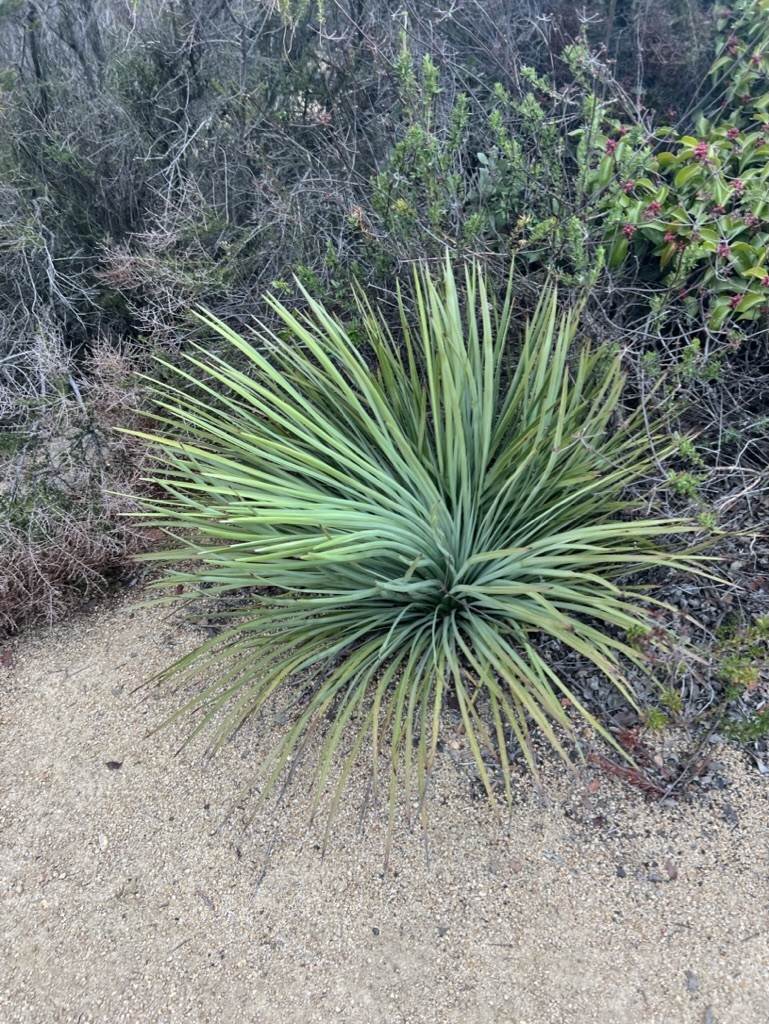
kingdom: Plantae
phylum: Tracheophyta
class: Liliopsida
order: Asparagales
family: Asparagaceae
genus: Hesperoyucca
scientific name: Hesperoyucca whipplei
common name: Our lord's-candle
